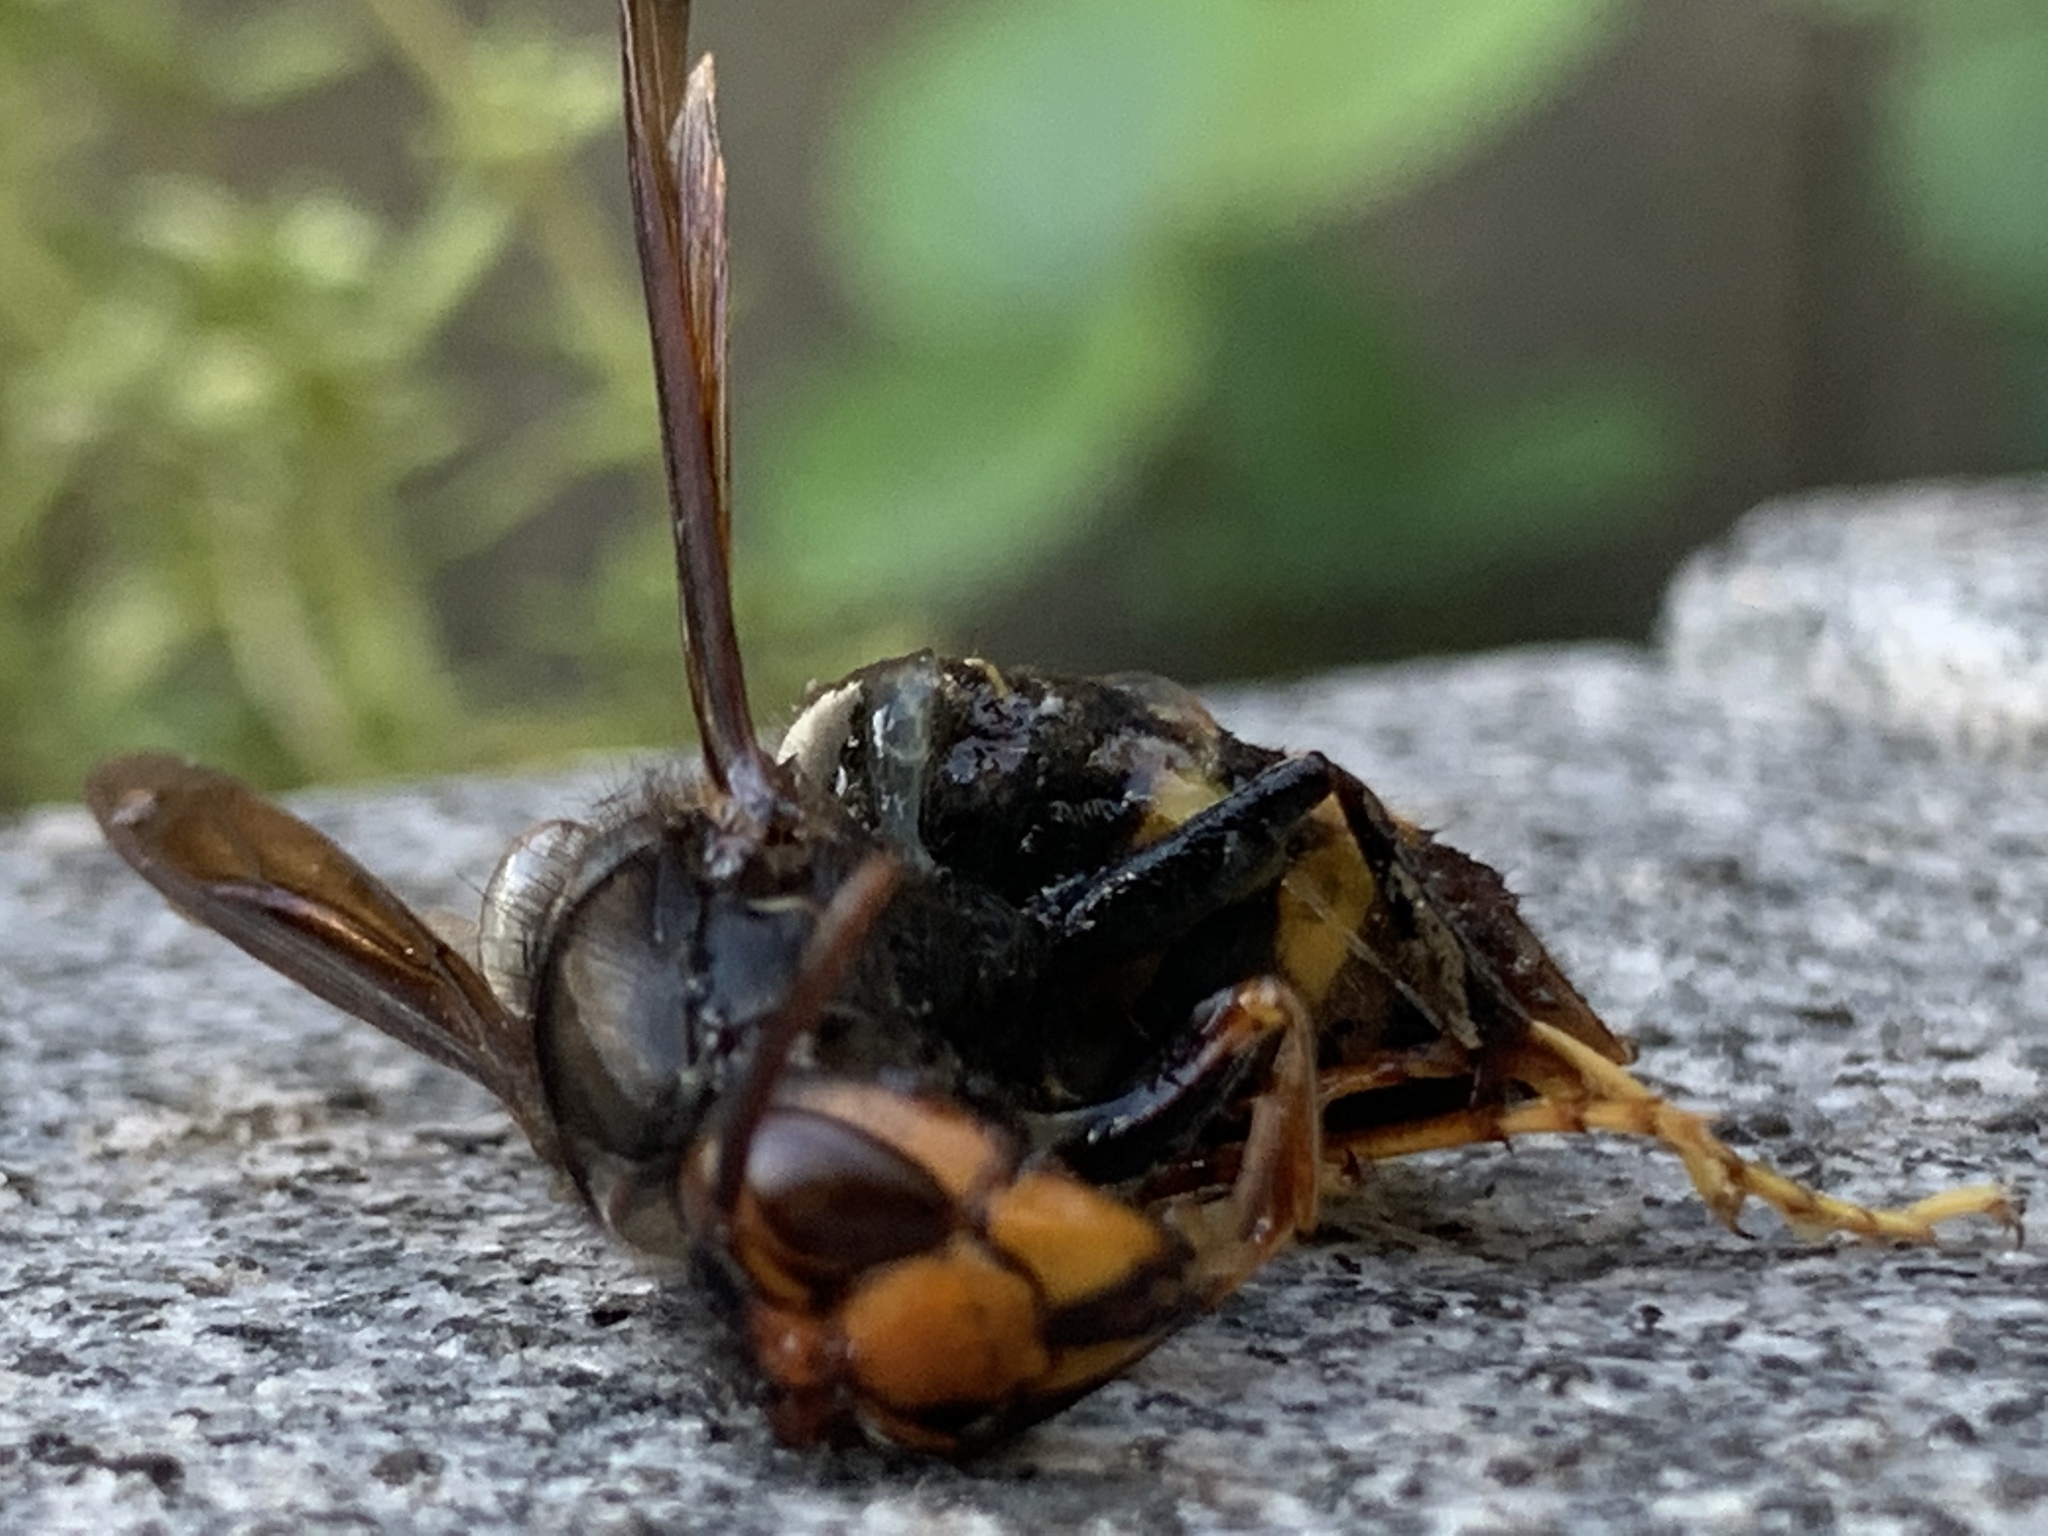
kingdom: Animalia
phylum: Arthropoda
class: Insecta
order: Hymenoptera
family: Vespidae
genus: Vespa
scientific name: Vespa velutina
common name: Asian hornet
